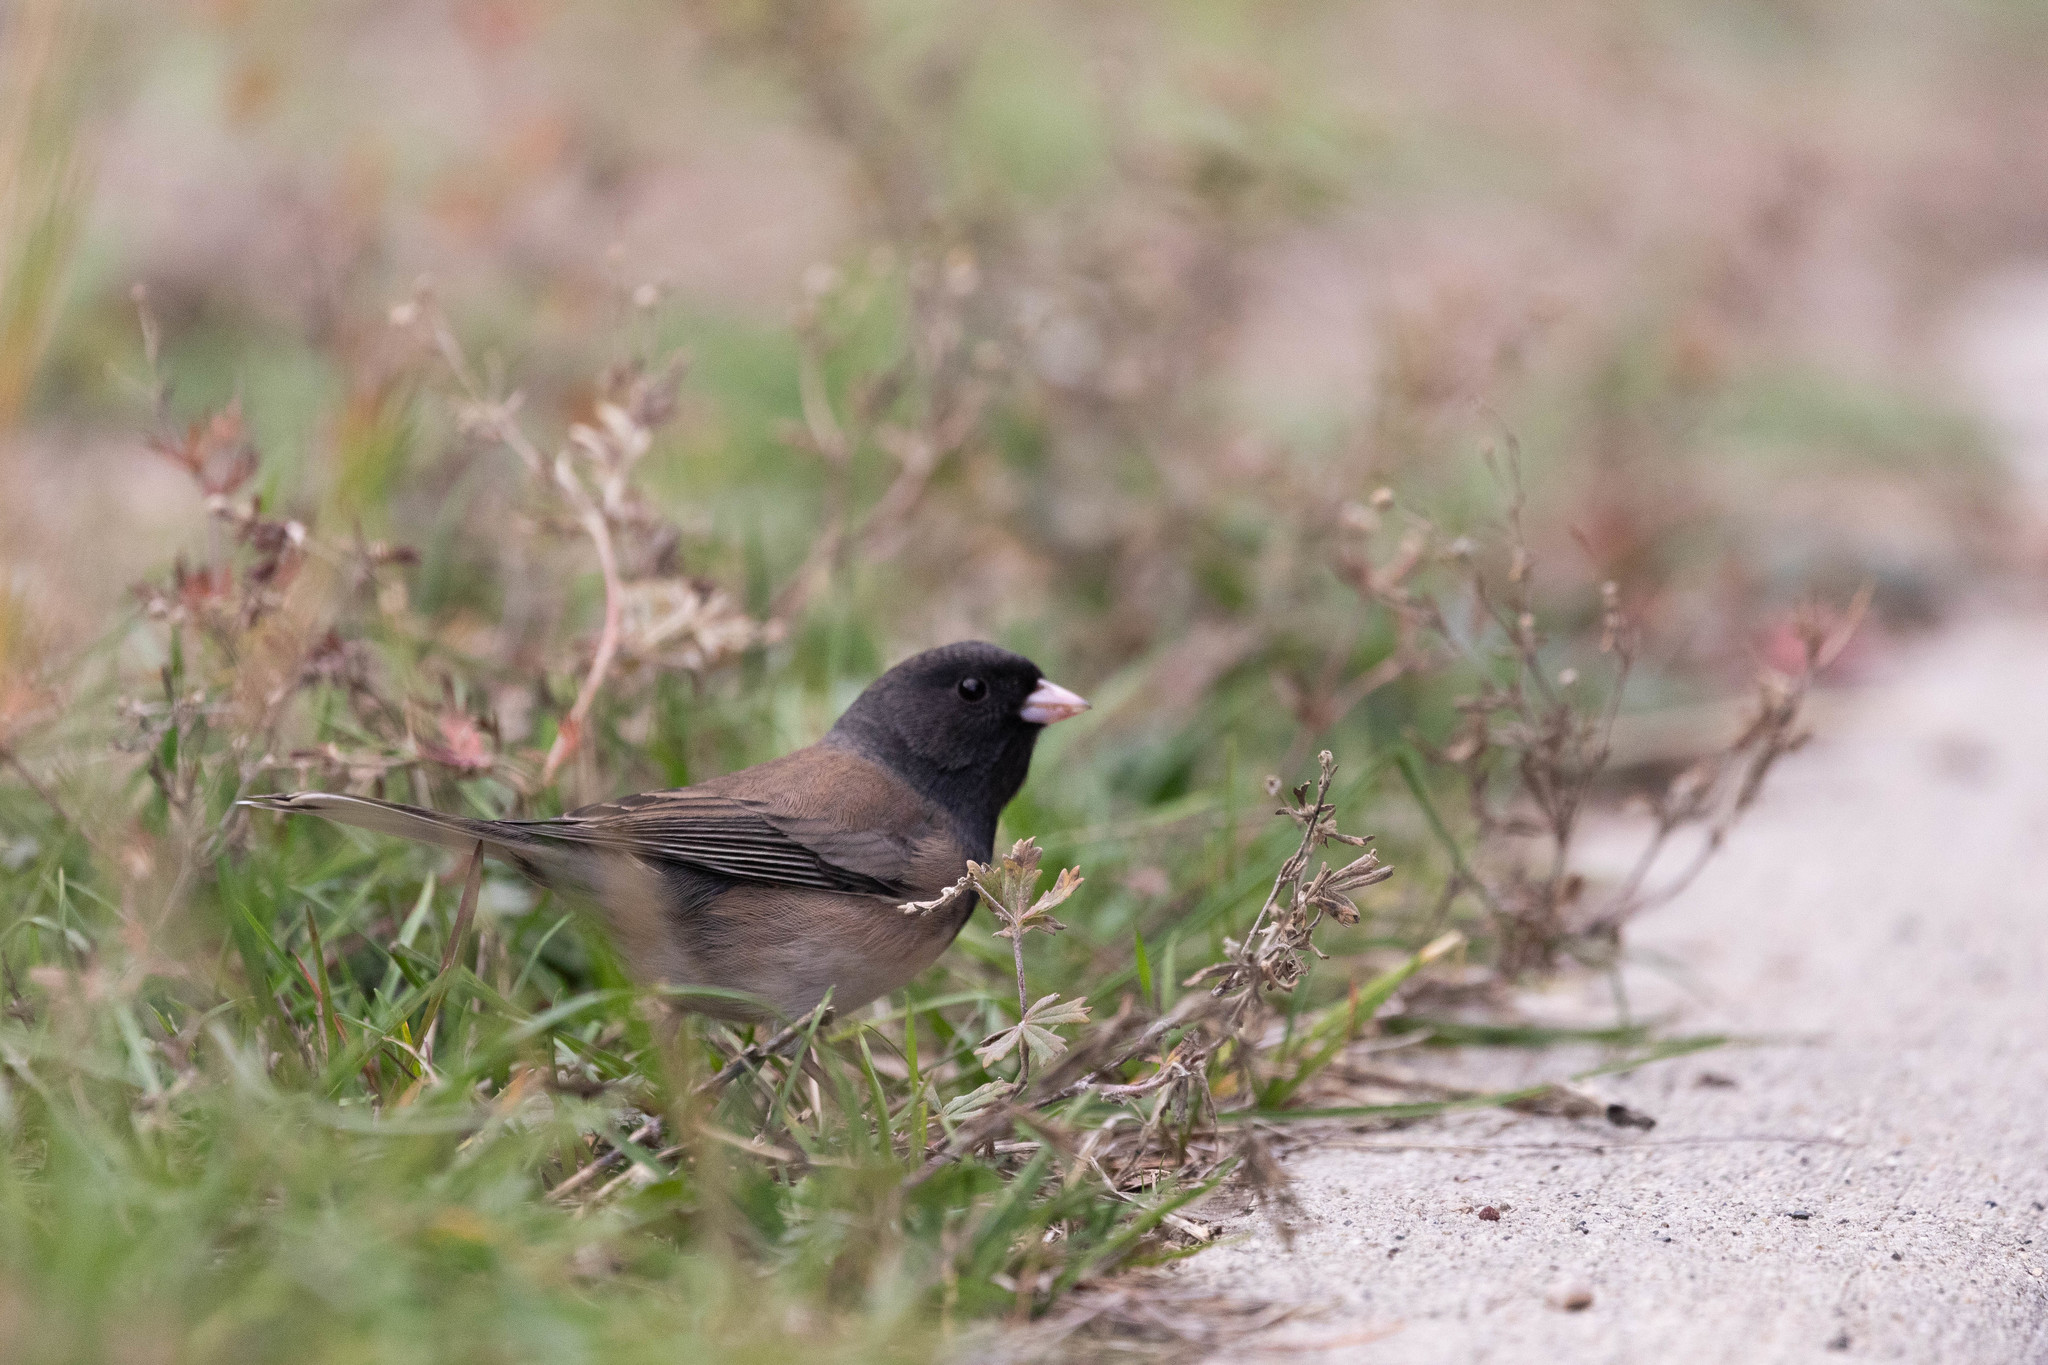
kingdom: Animalia
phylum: Chordata
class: Aves
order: Passeriformes
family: Passerellidae
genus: Junco
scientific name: Junco hyemalis
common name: Dark-eyed junco
